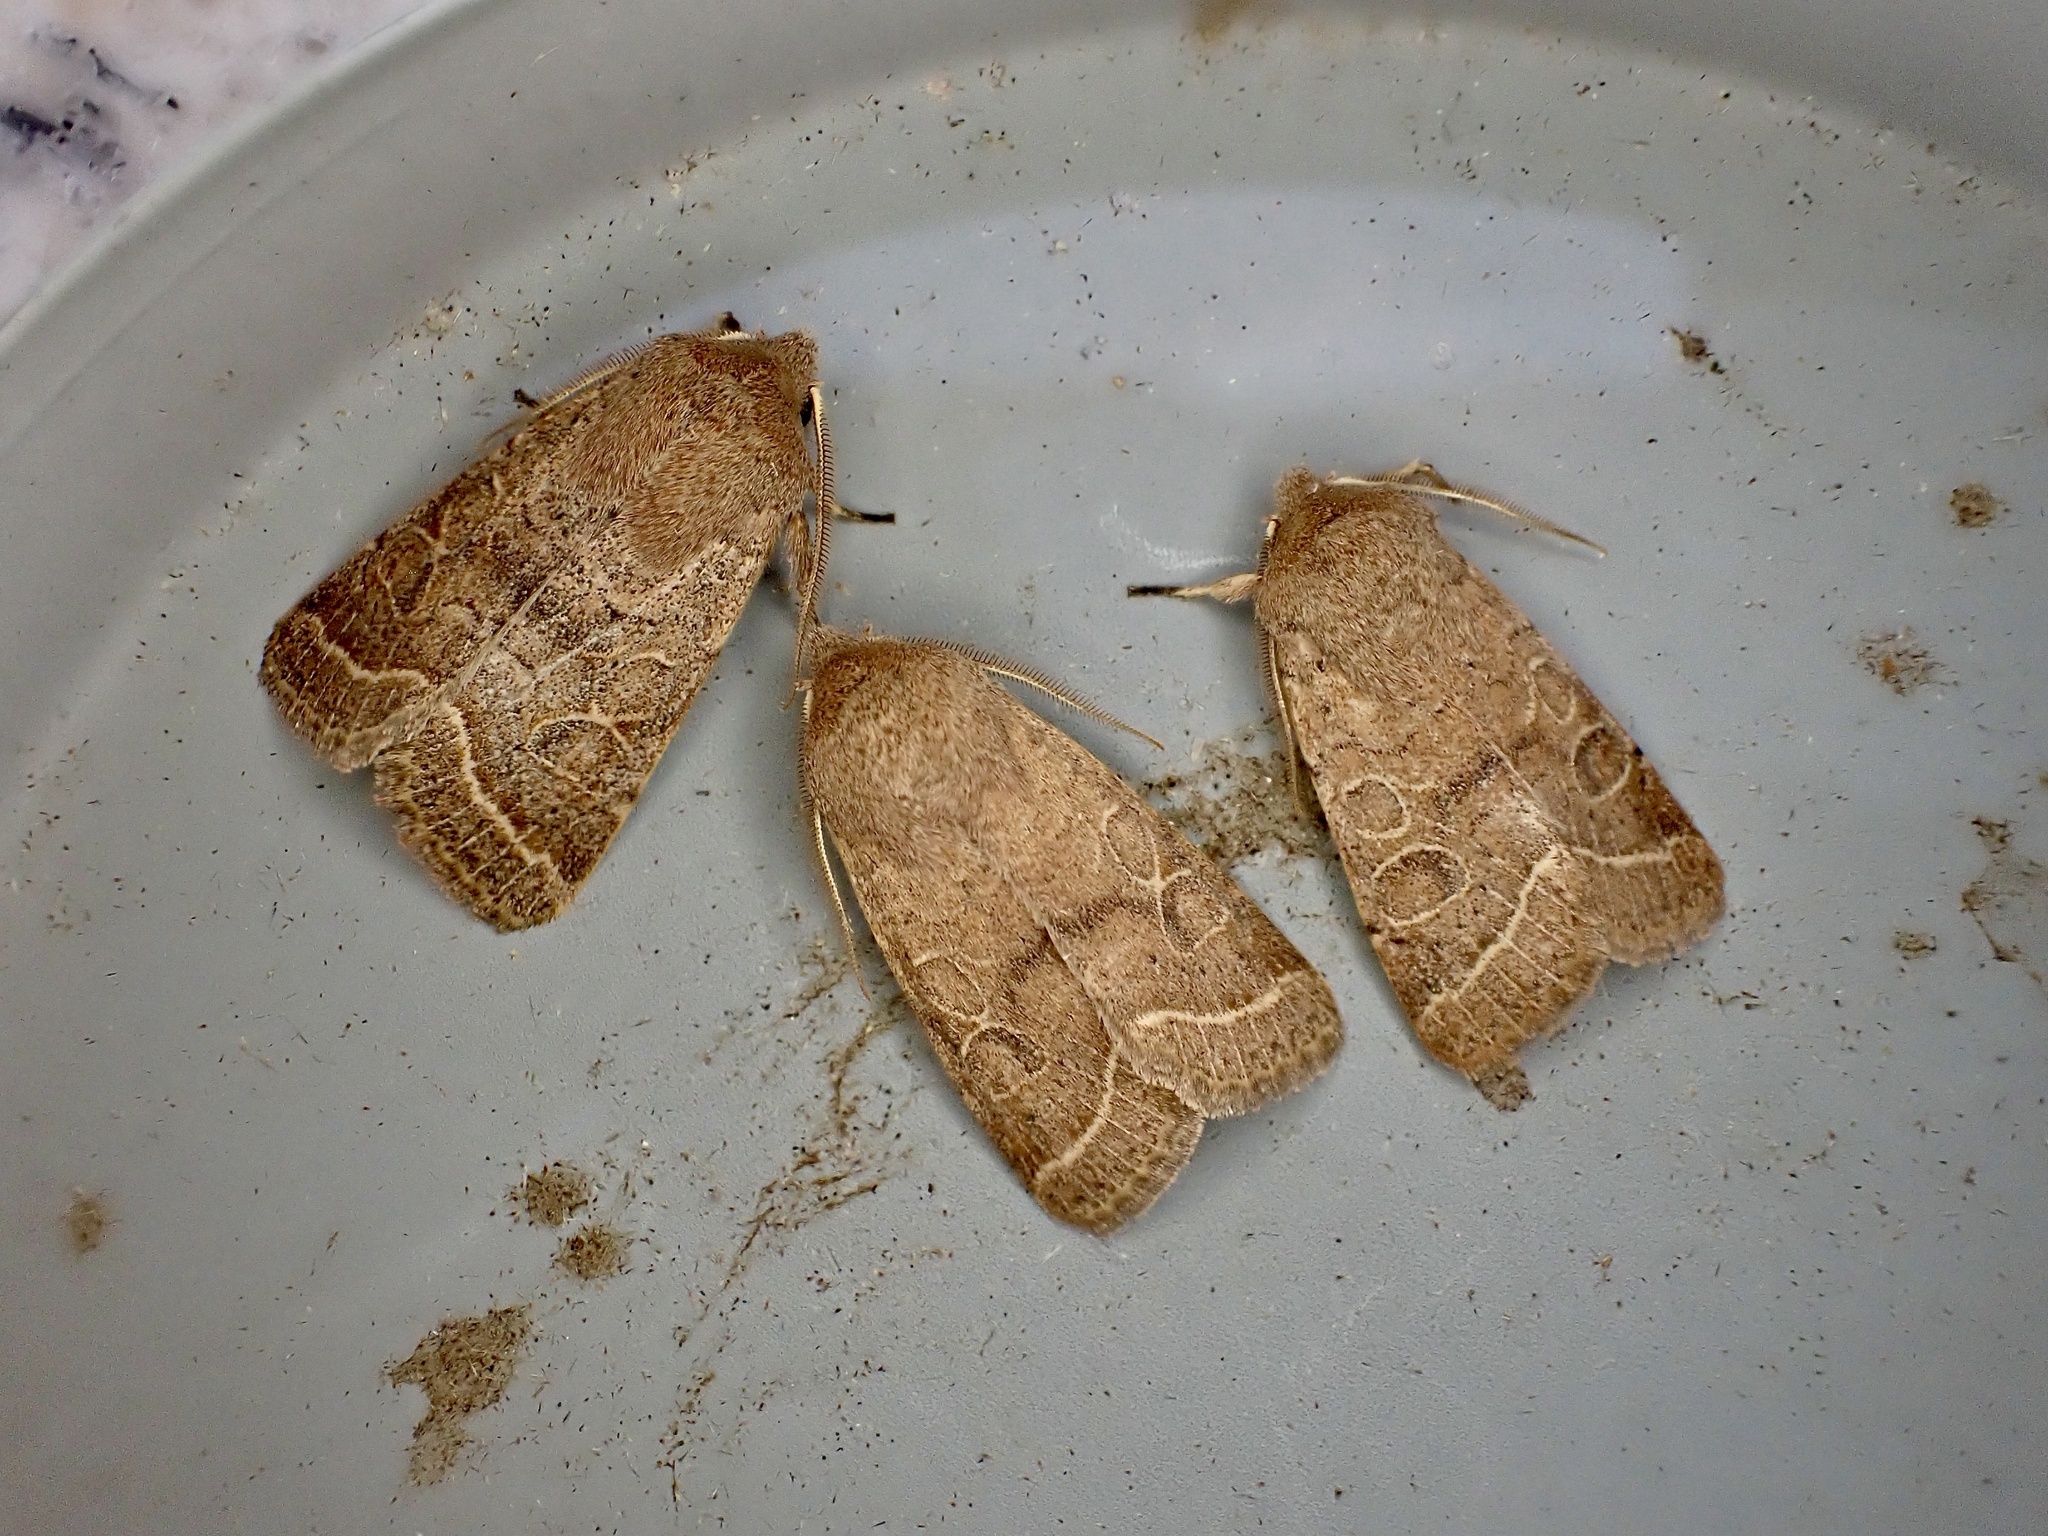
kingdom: Animalia
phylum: Arthropoda
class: Insecta
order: Lepidoptera
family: Noctuidae
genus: Orthosia
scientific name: Orthosia cerasi
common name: Common quaker
